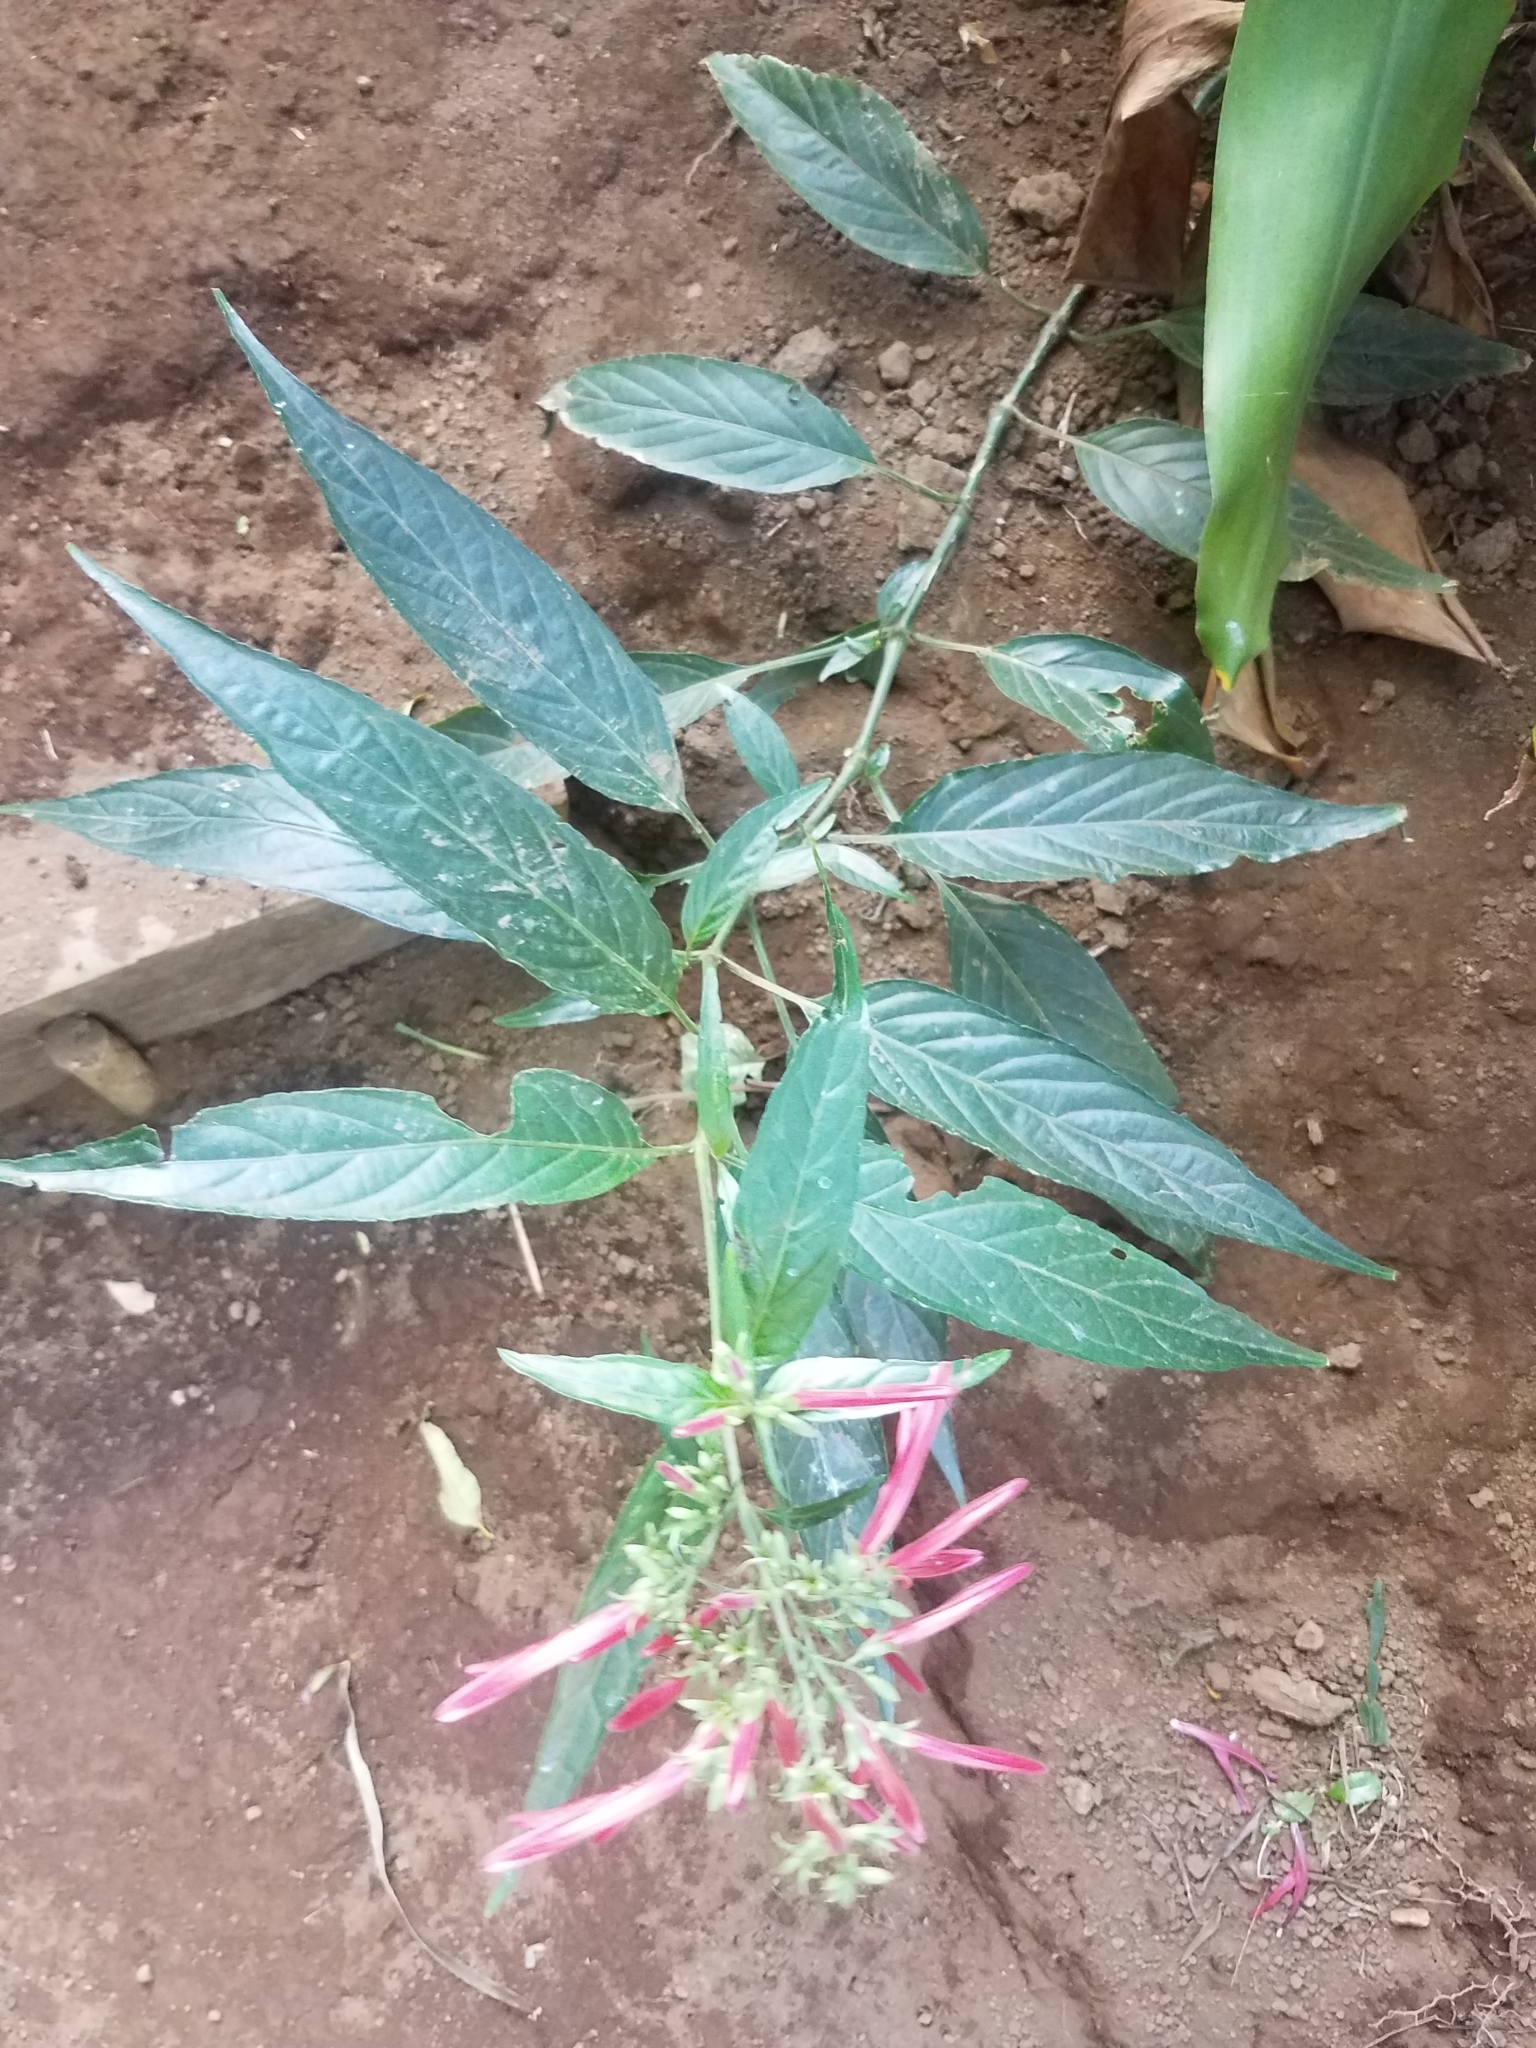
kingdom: Plantae
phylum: Tracheophyta
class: Magnoliopsida
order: Lamiales
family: Acanthaceae
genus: Dianthera
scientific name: Dianthera secunda
